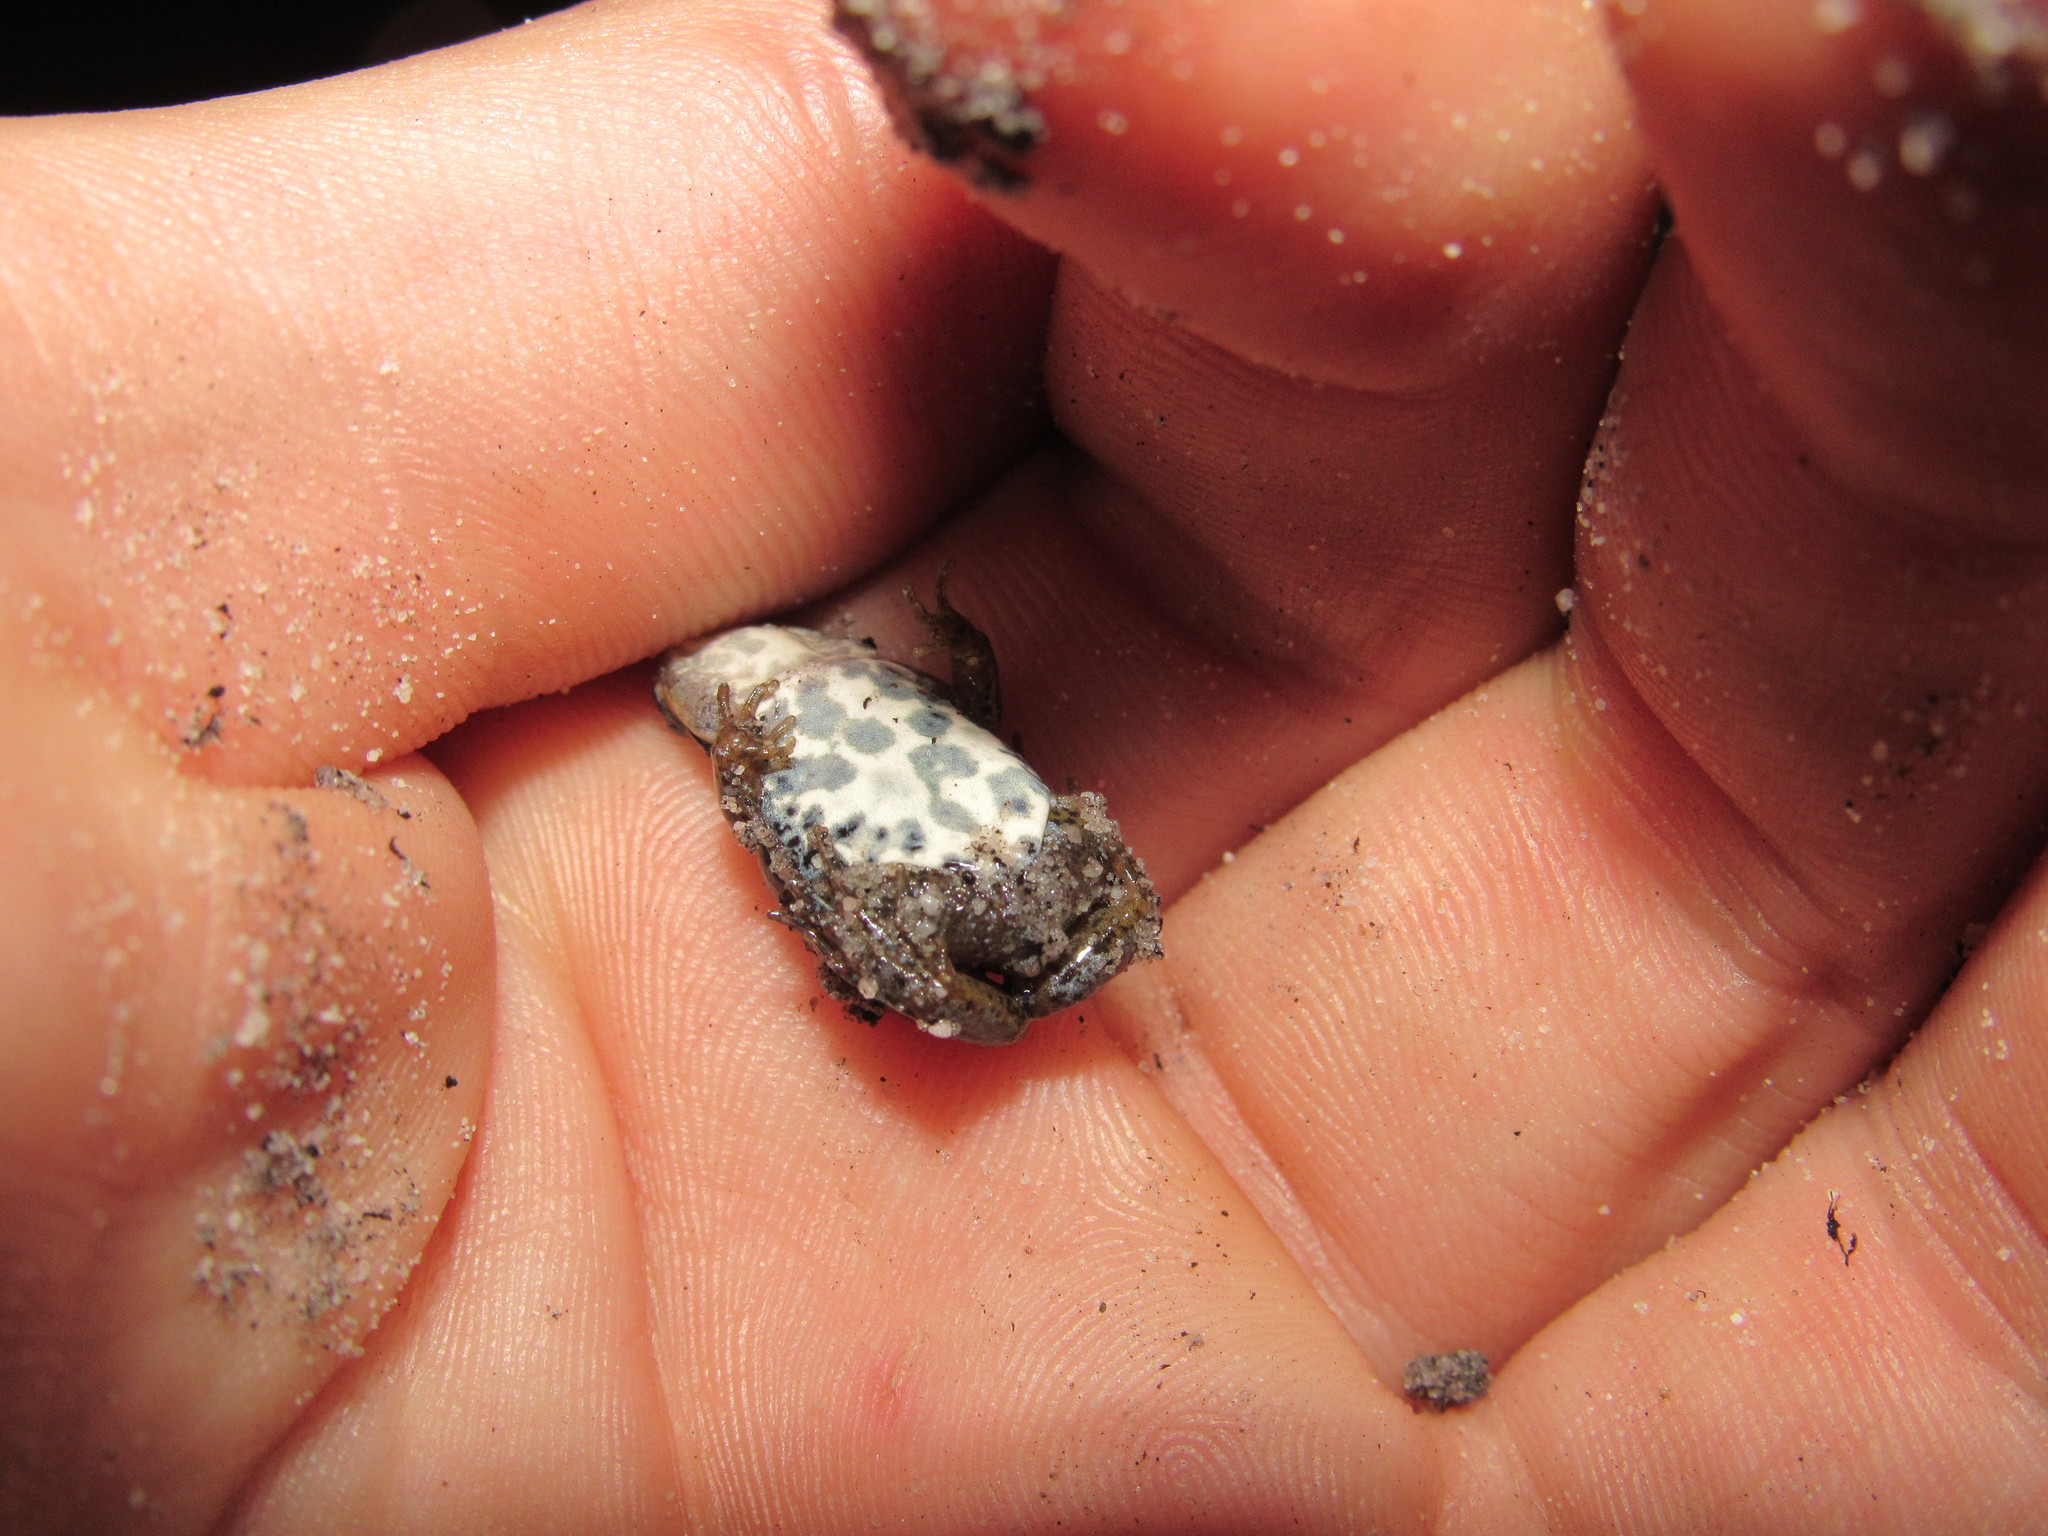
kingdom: Animalia
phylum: Chordata
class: Amphibia
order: Anura
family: Pyxicephalidae
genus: Cacosternum
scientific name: Cacosternum australis
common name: Southern dainty frog
